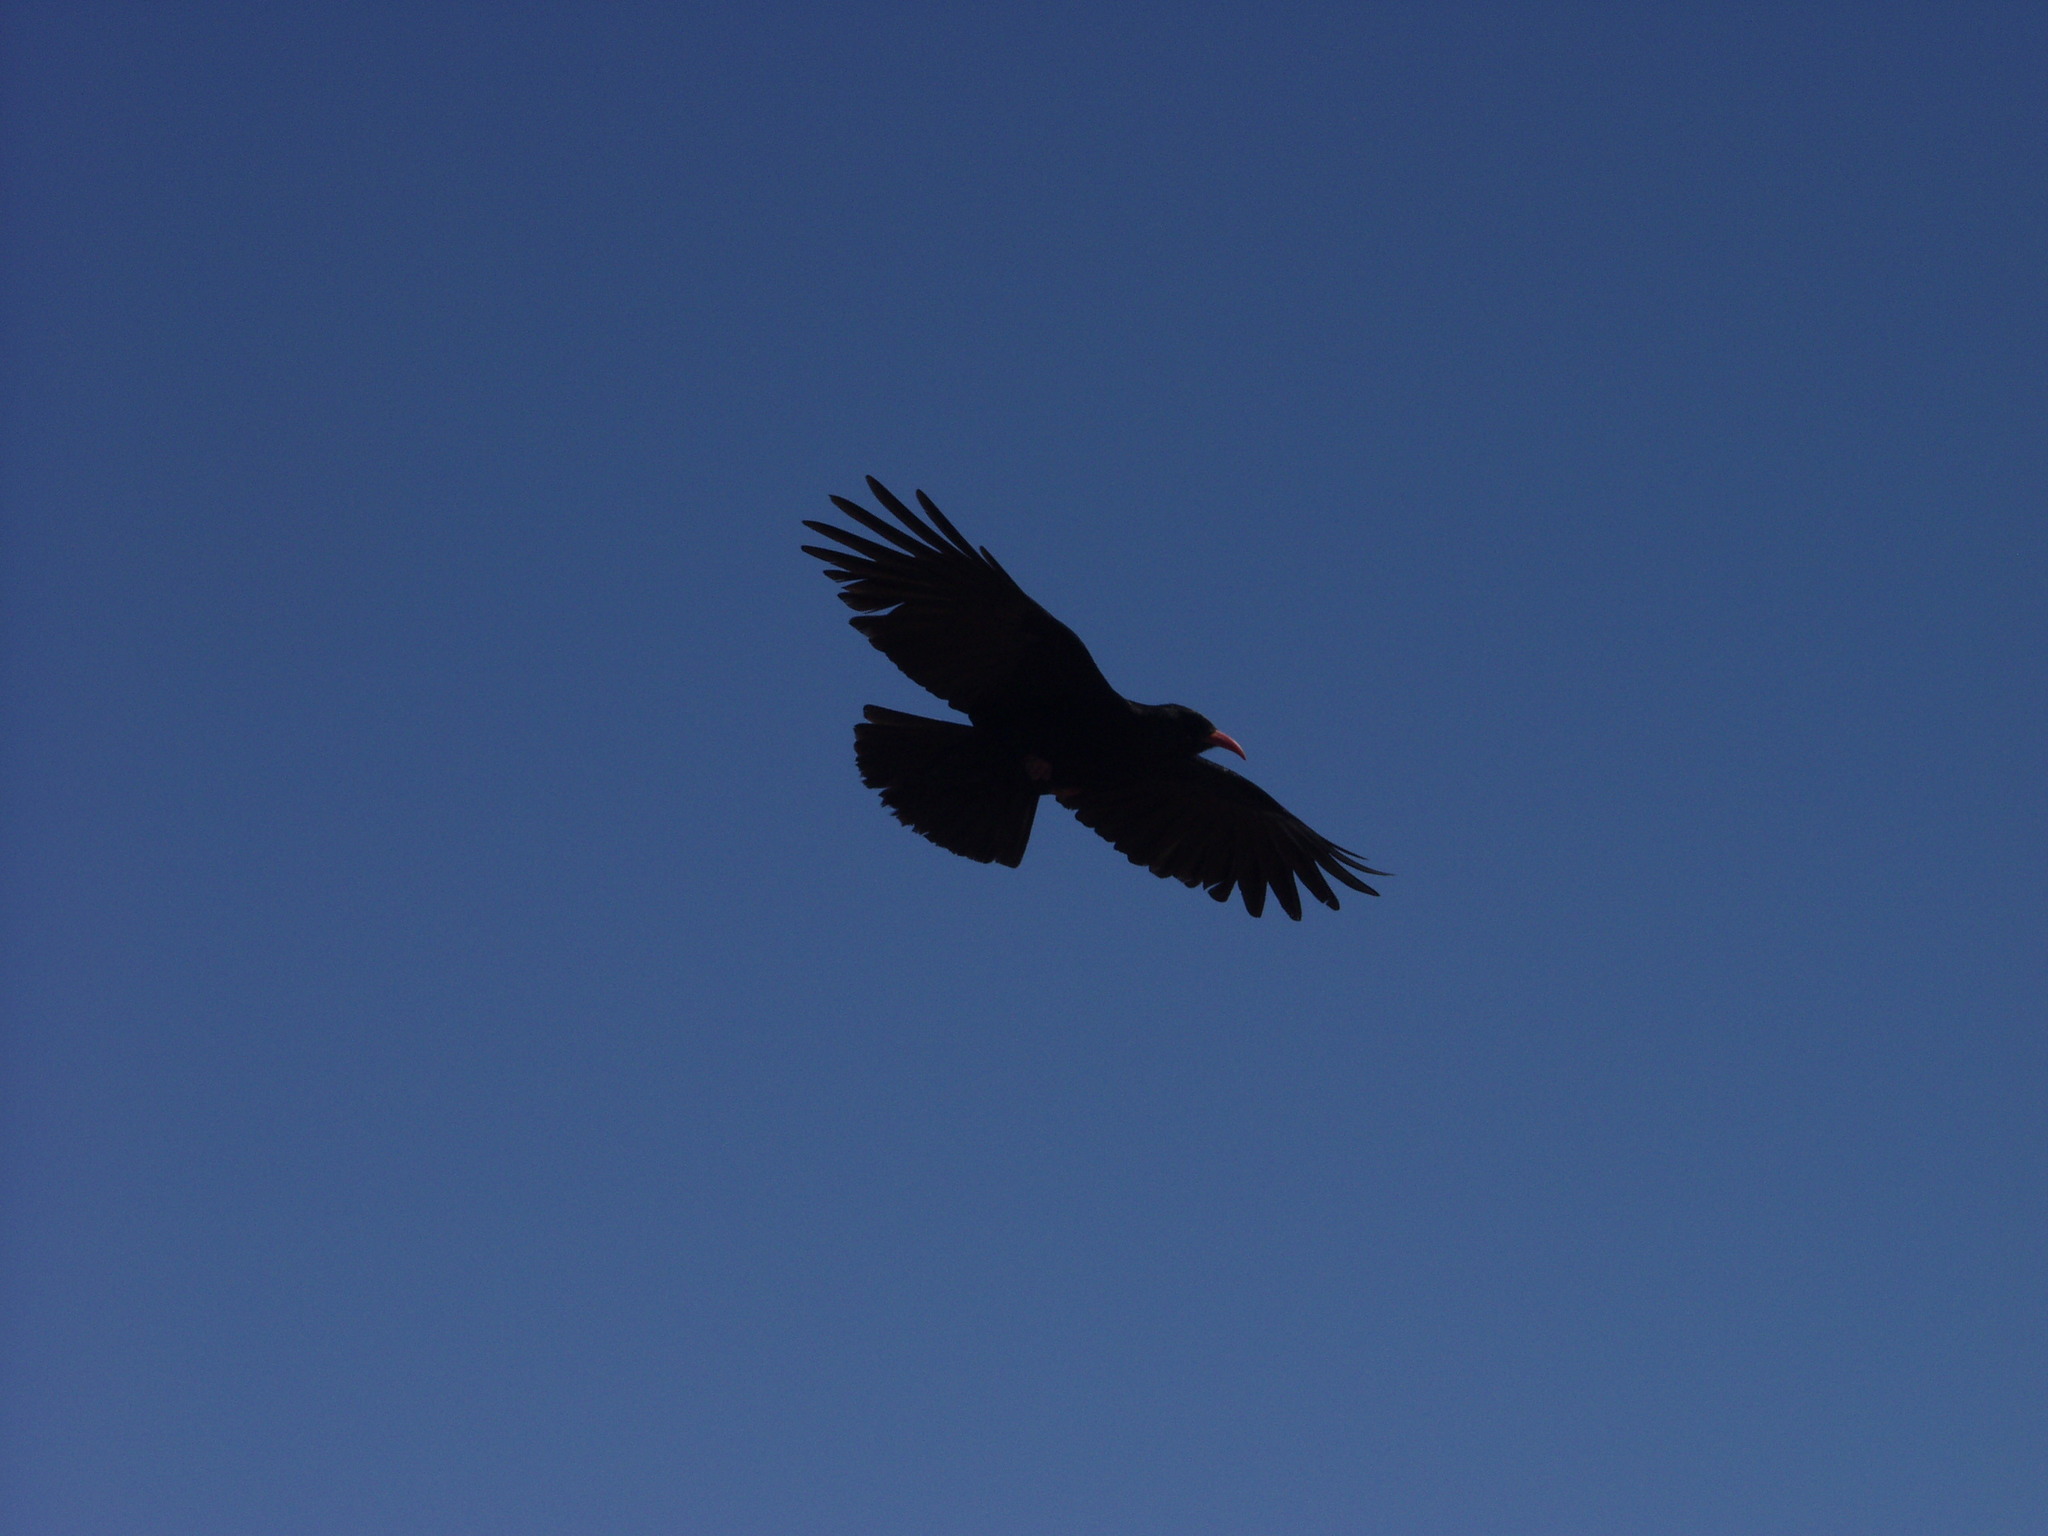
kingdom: Animalia
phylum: Chordata
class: Aves
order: Passeriformes
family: Corvidae
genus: Pyrrhocorax
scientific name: Pyrrhocorax pyrrhocorax
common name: Red-billed chough
